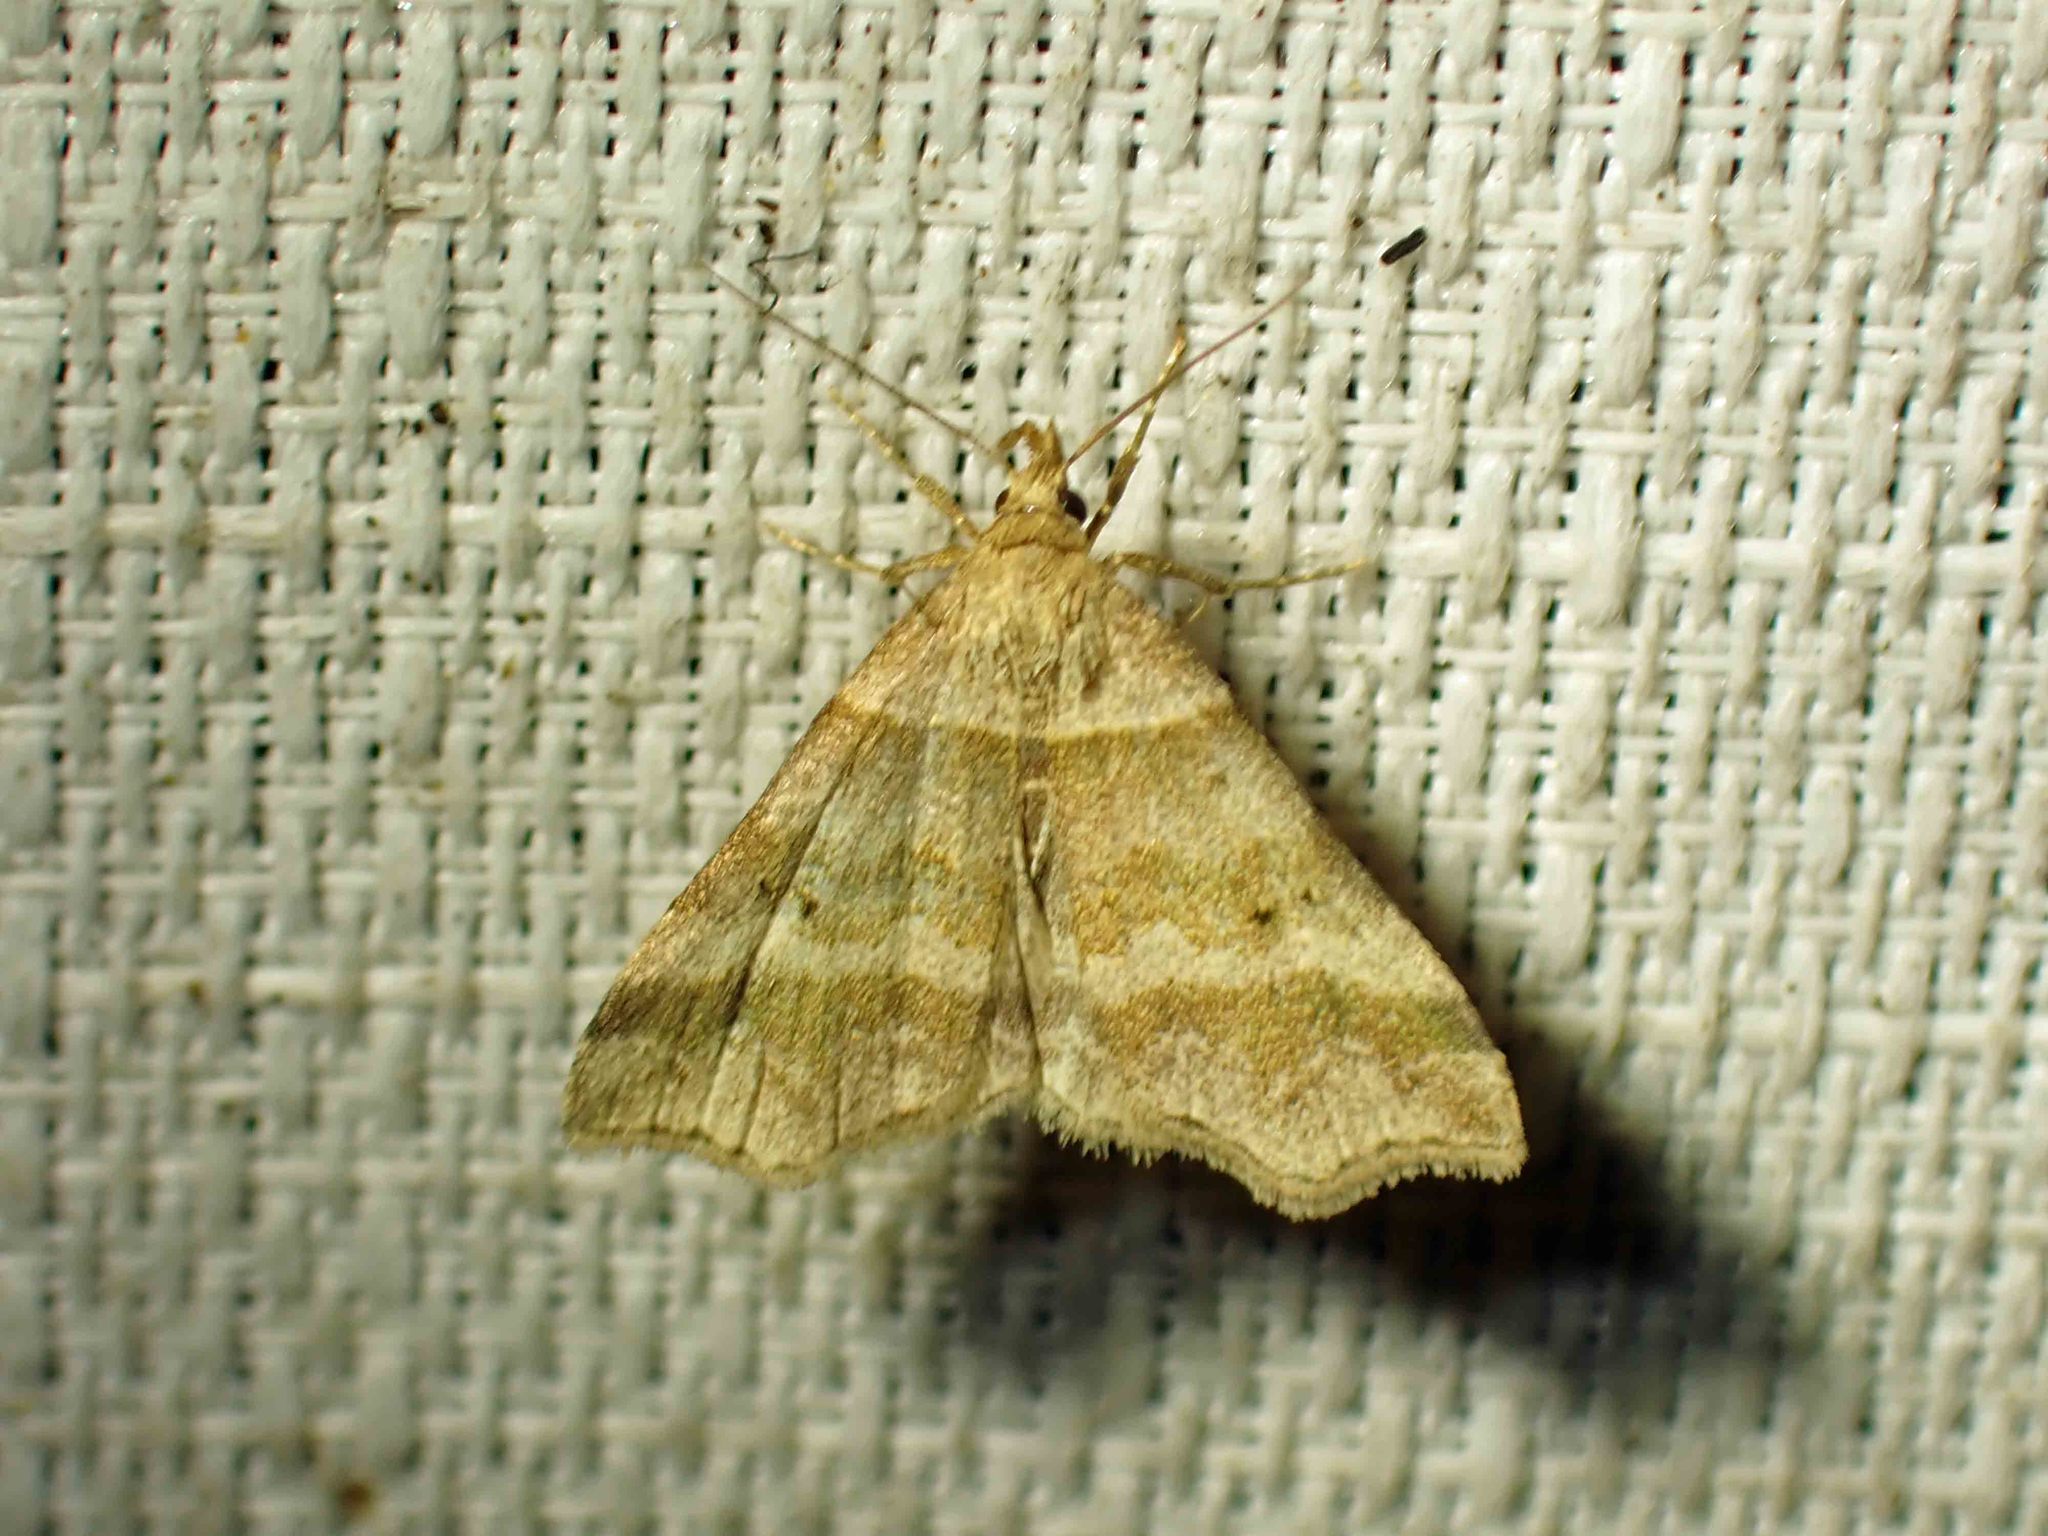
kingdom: Animalia
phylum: Arthropoda
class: Insecta
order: Lepidoptera
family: Erebidae
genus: Phaeolita
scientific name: Phaeolita pyramusalis
